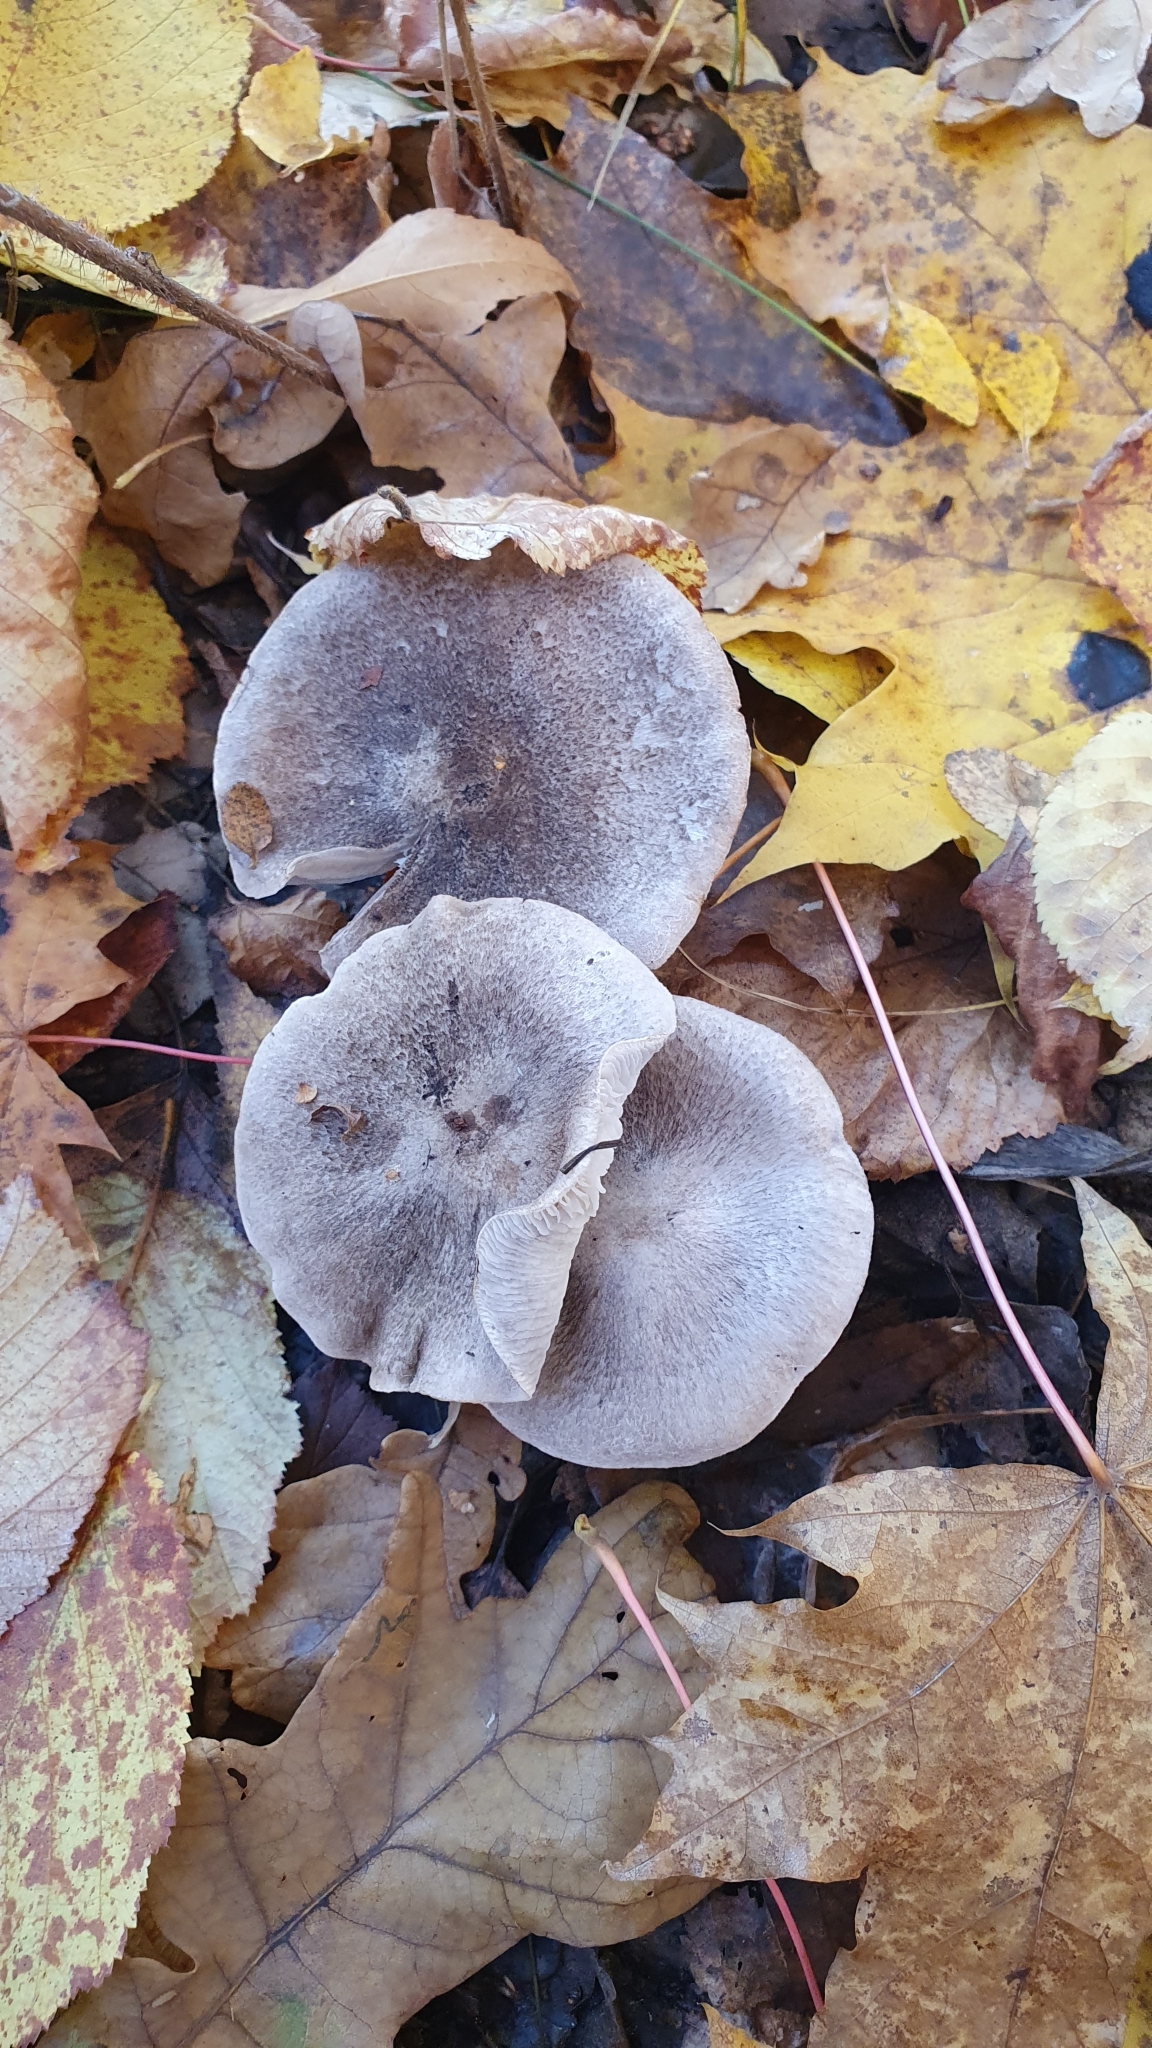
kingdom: Fungi
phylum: Basidiomycota
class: Agaricomycetes
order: Agaricales
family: Tricholomataceae
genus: Tricholoma
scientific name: Tricholoma terreum
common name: Grey knight
